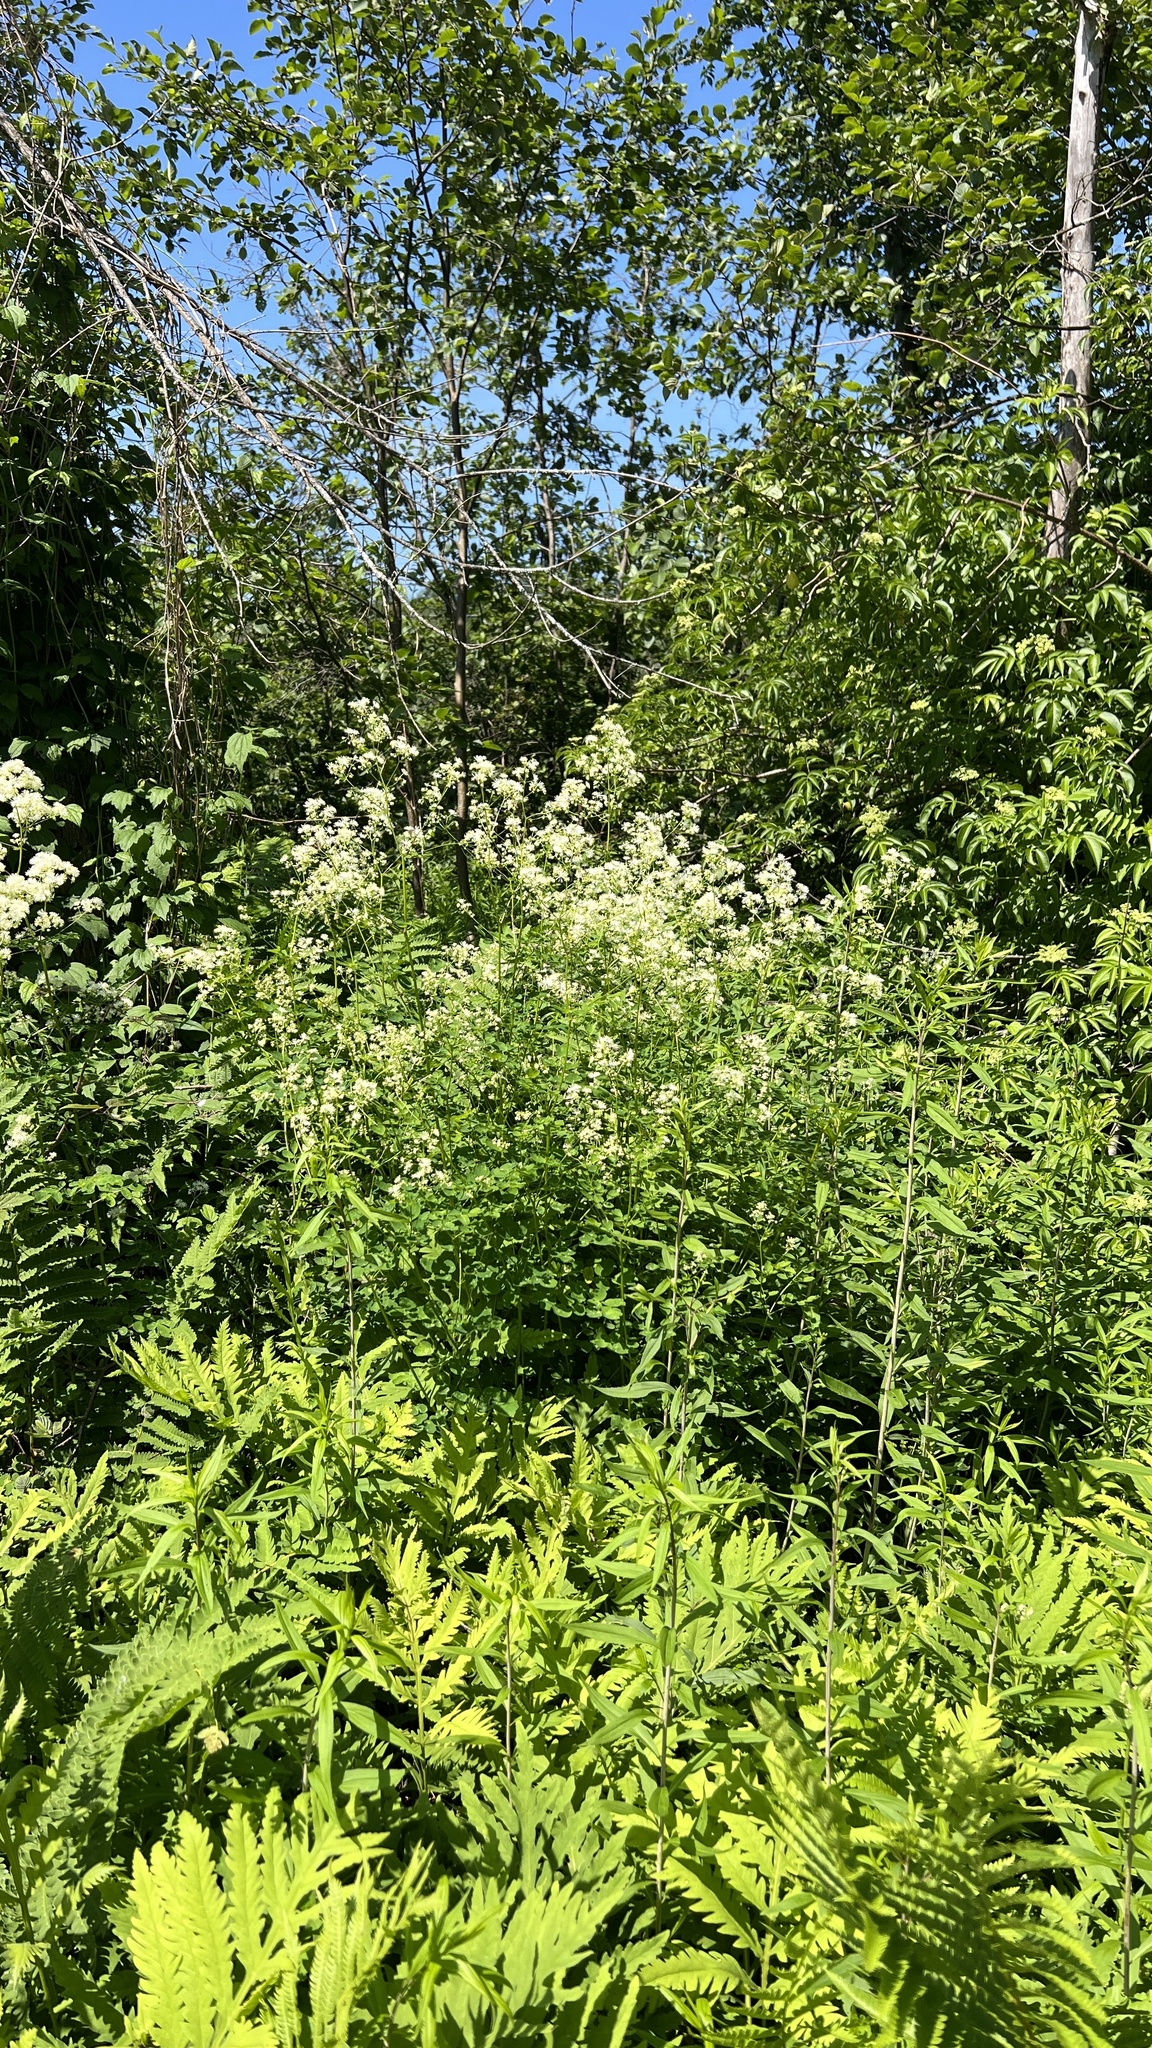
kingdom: Plantae
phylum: Tracheophyta
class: Magnoliopsida
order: Ranunculales
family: Ranunculaceae
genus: Thalictrum
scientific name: Thalictrum pubescens
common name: King-of-the-meadow
